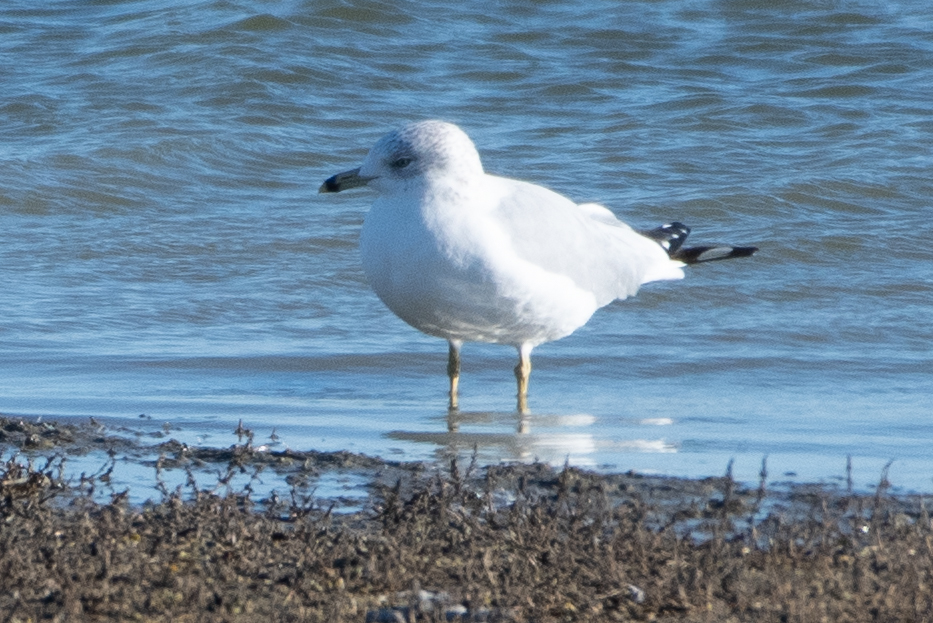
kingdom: Animalia
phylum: Chordata
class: Aves
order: Charadriiformes
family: Laridae
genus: Larus
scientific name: Larus delawarensis
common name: Ring-billed gull
